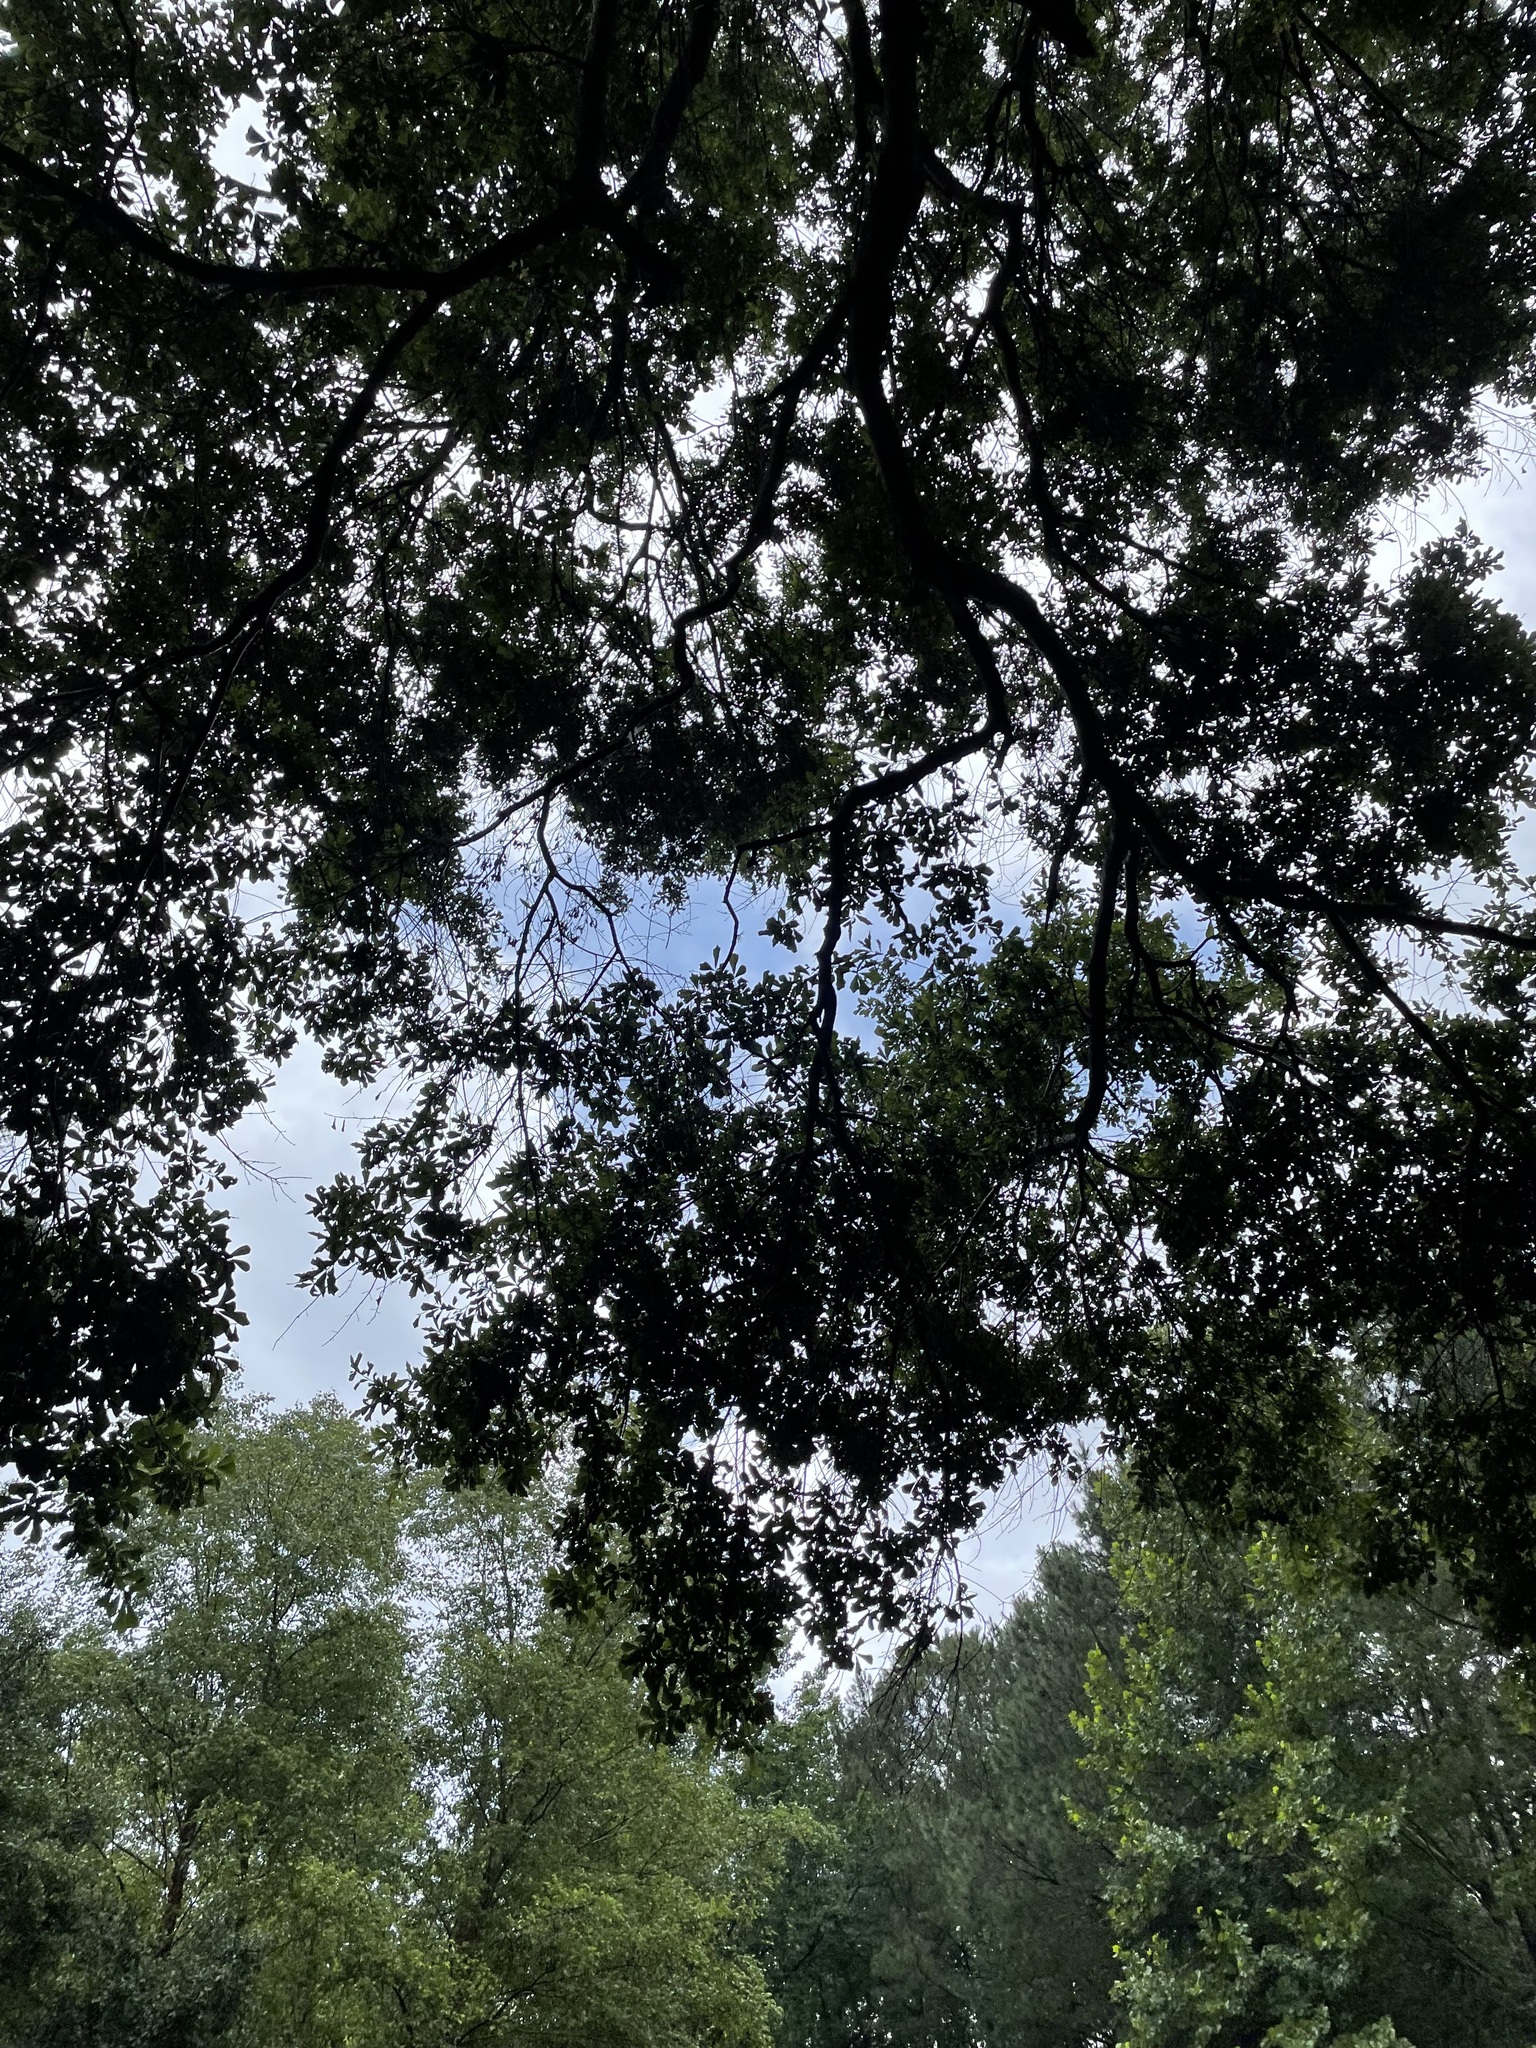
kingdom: Plantae
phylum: Tracheophyta
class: Magnoliopsida
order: Fagales
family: Fagaceae
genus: Quercus
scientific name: Quercus nigra
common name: Water oak
